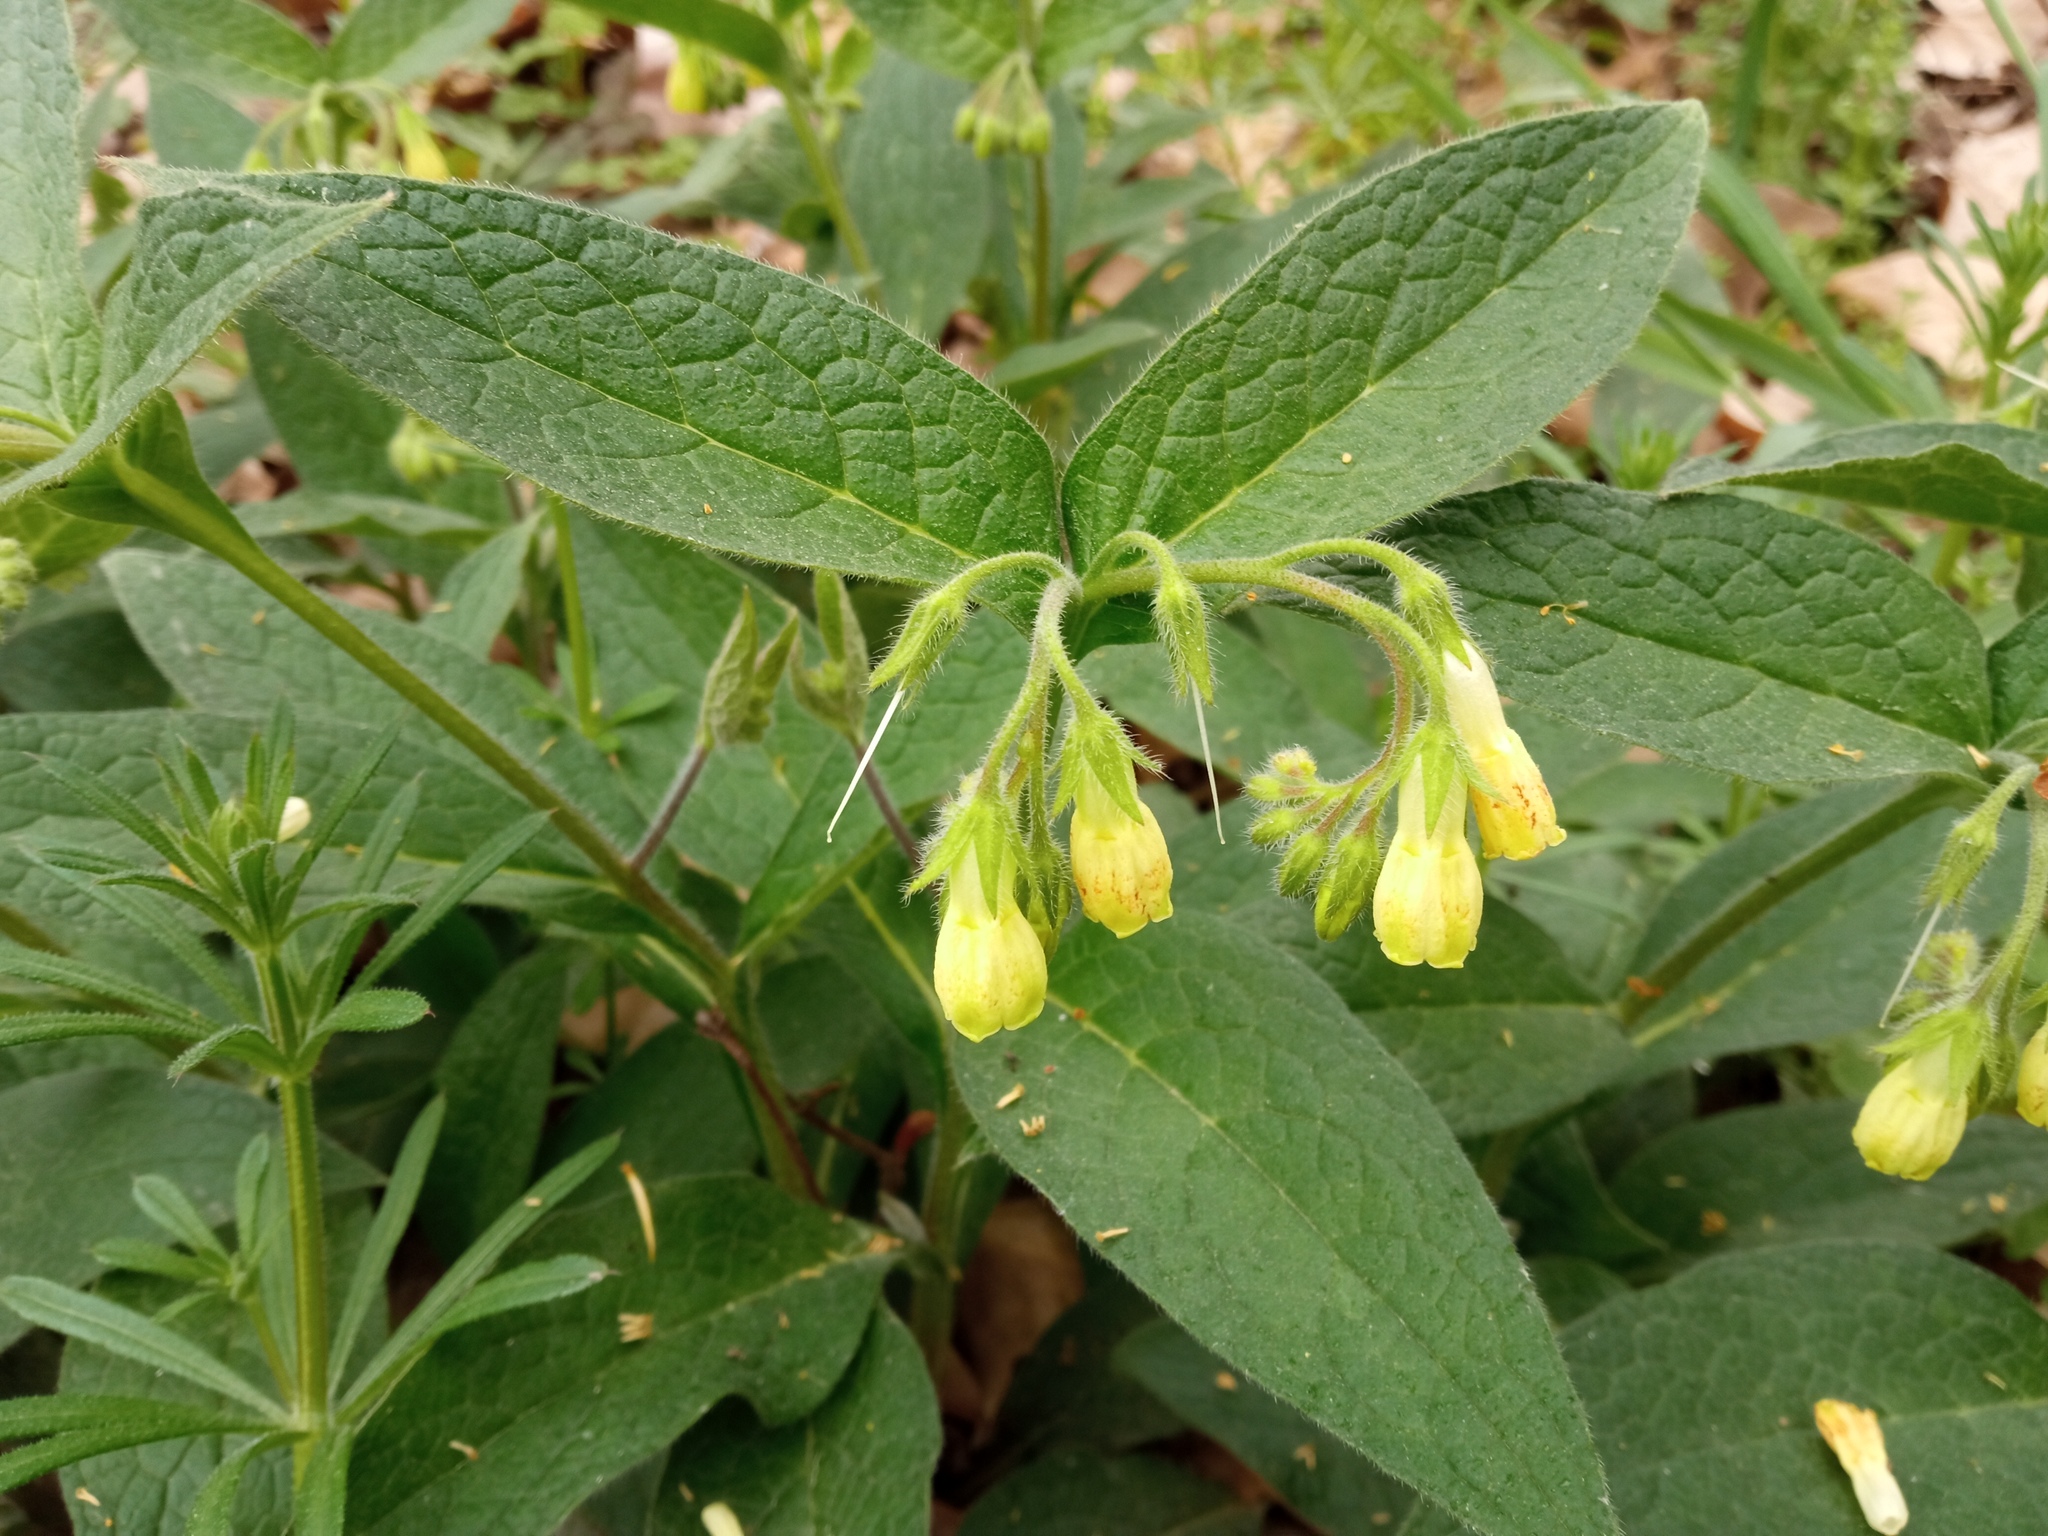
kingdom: Plantae
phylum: Tracheophyta
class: Magnoliopsida
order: Boraginales
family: Boraginaceae
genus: Symphytum
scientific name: Symphytum tuberosum
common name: Tuberous comfrey
